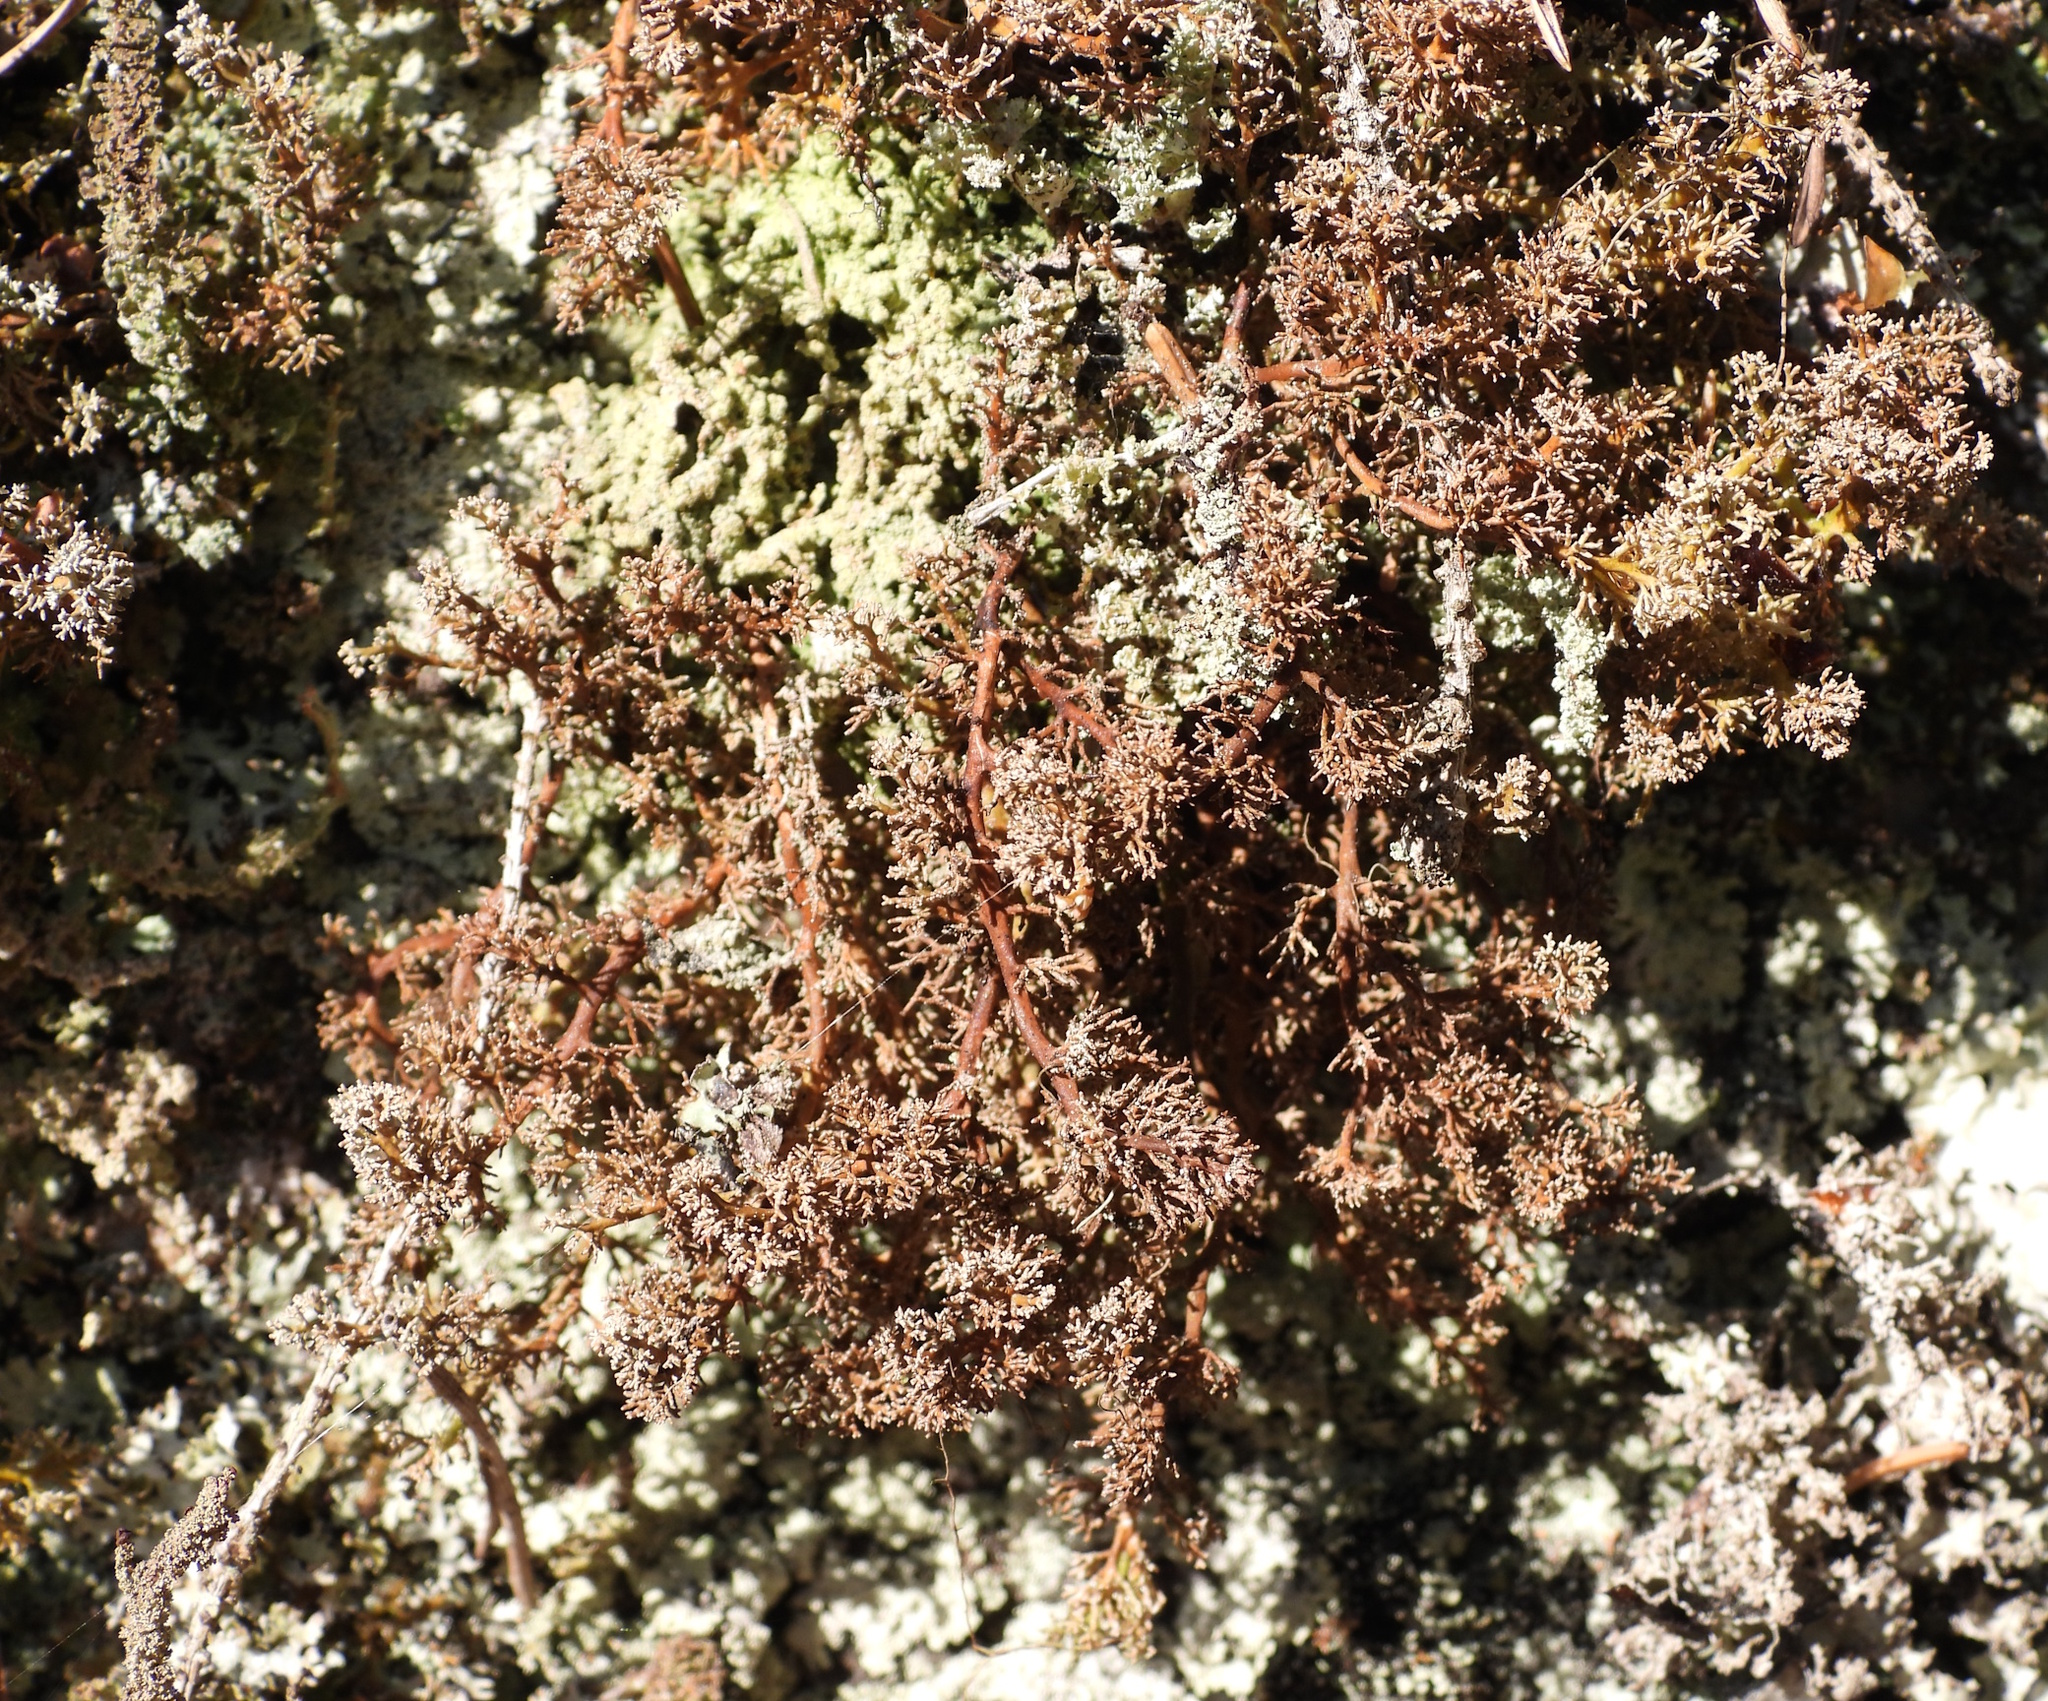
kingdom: Fungi
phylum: Ascomycota
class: Lecanoromycetes
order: Lecanorales
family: Sphaerophoraceae
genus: Sphaerophorus
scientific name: Sphaerophorus globosus
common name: Globe ball lichen
